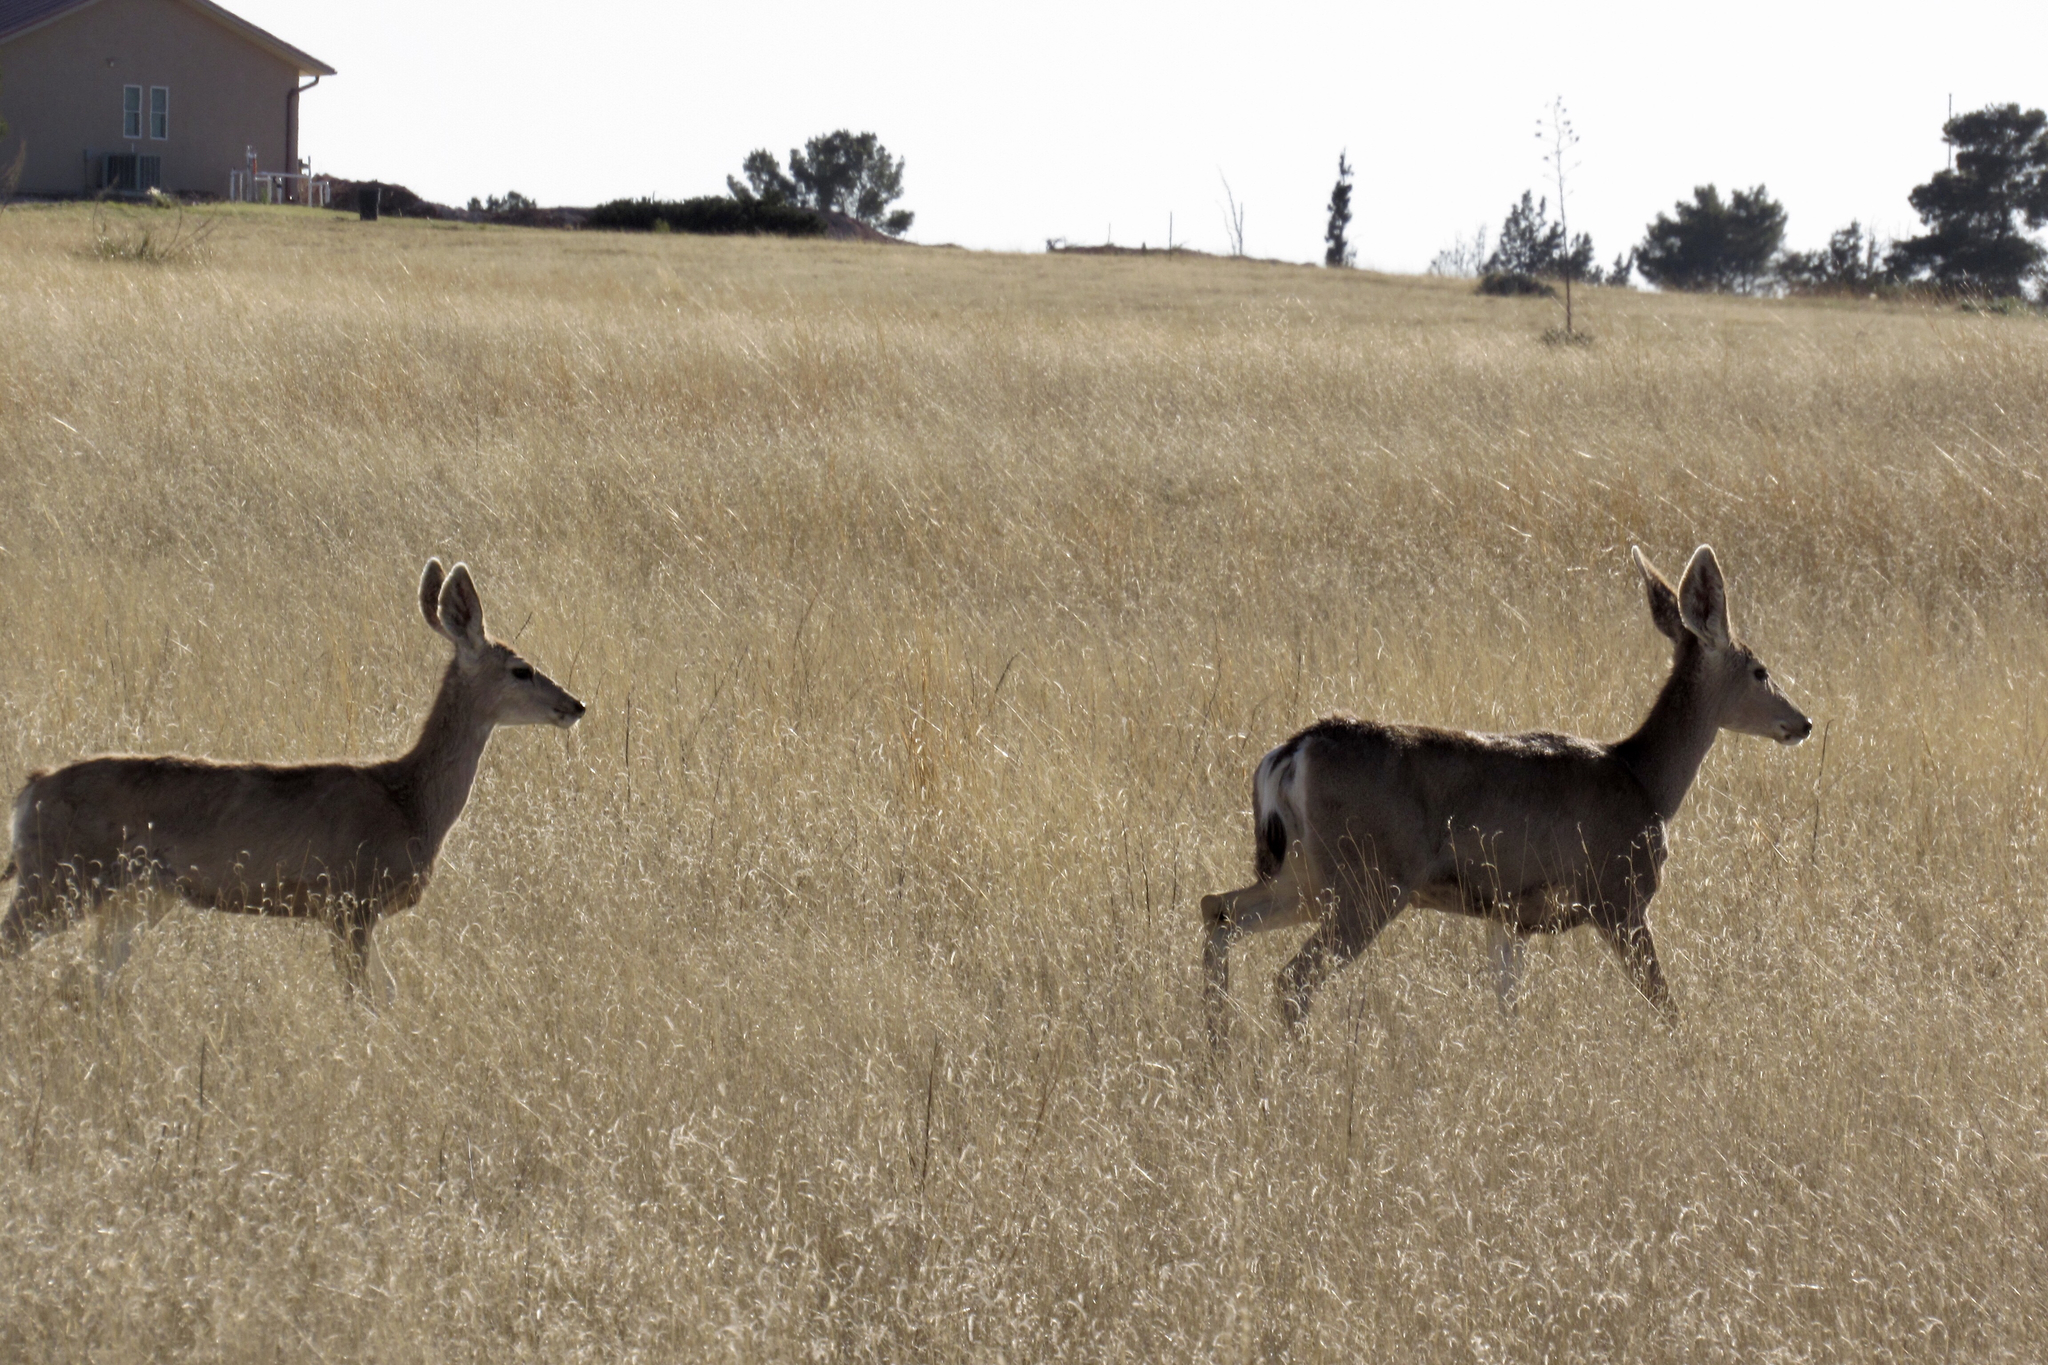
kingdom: Animalia
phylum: Chordata
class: Mammalia
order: Artiodactyla
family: Cervidae
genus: Odocoileus
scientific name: Odocoileus hemionus
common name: Mule deer
